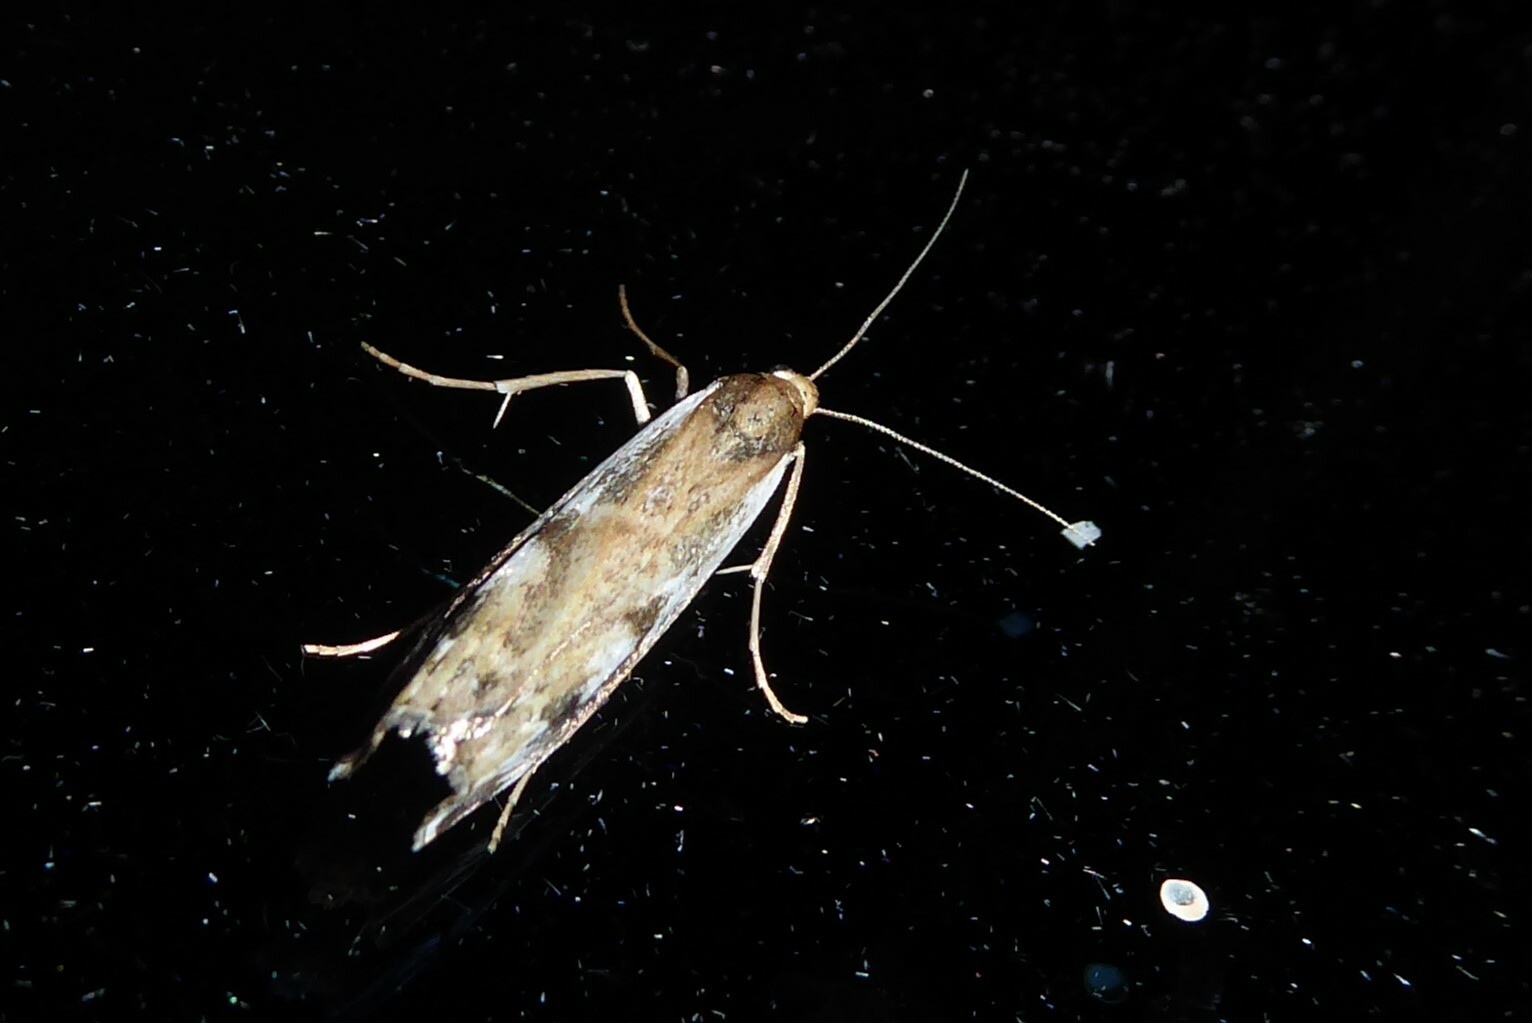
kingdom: Animalia
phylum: Arthropoda
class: Insecta
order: Lepidoptera
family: Crambidae
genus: Orocrambus
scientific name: Orocrambus vulgaris
